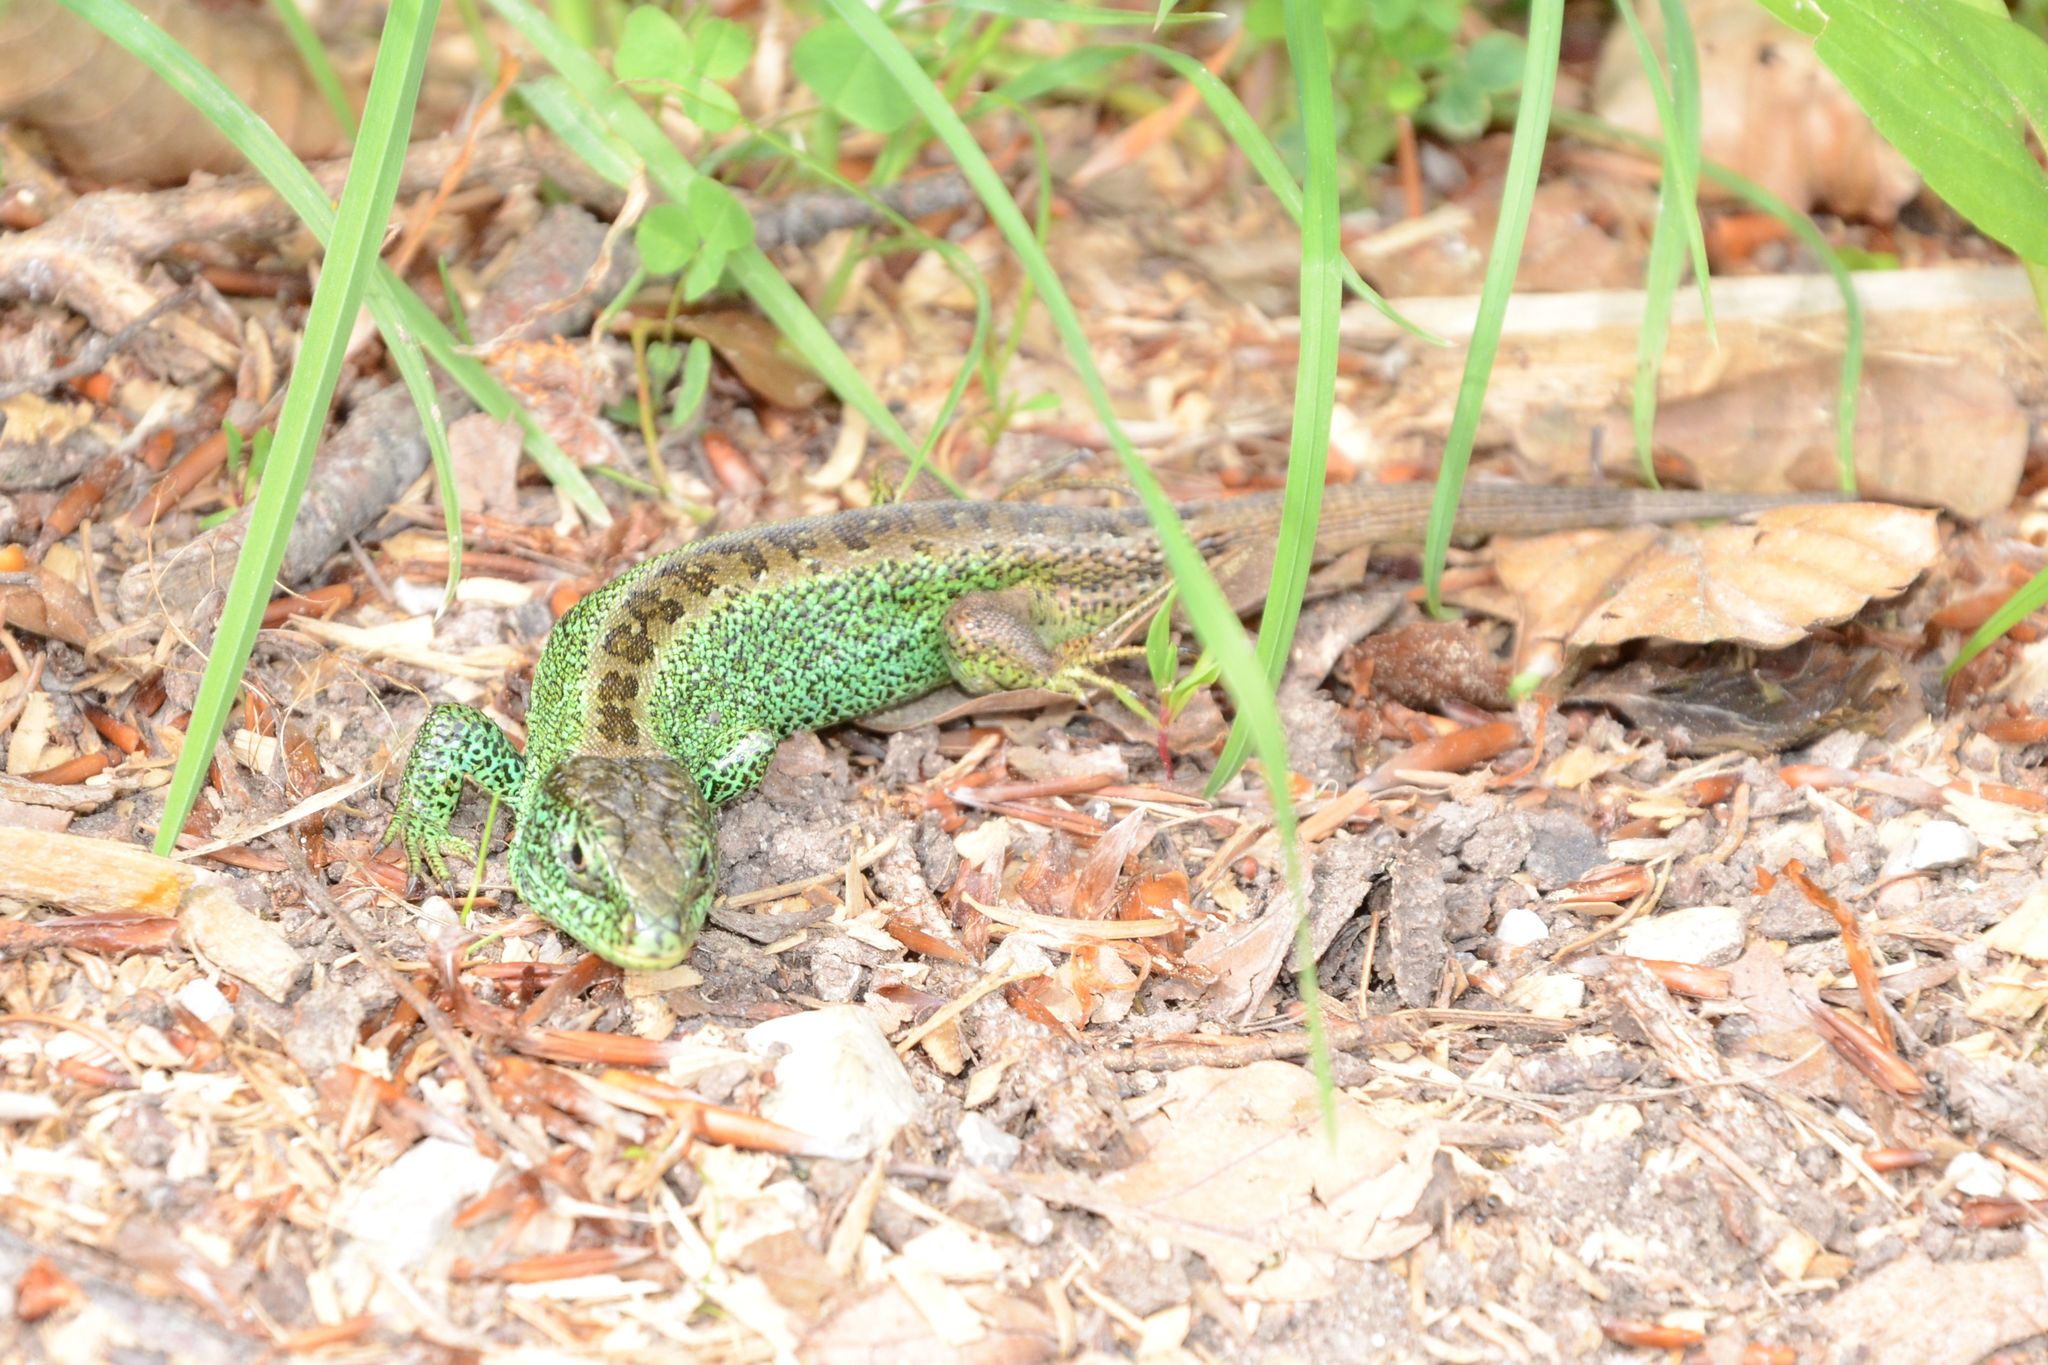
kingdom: Animalia
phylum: Chordata
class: Squamata
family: Lacertidae
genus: Lacerta
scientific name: Lacerta agilis
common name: Sand lizard
